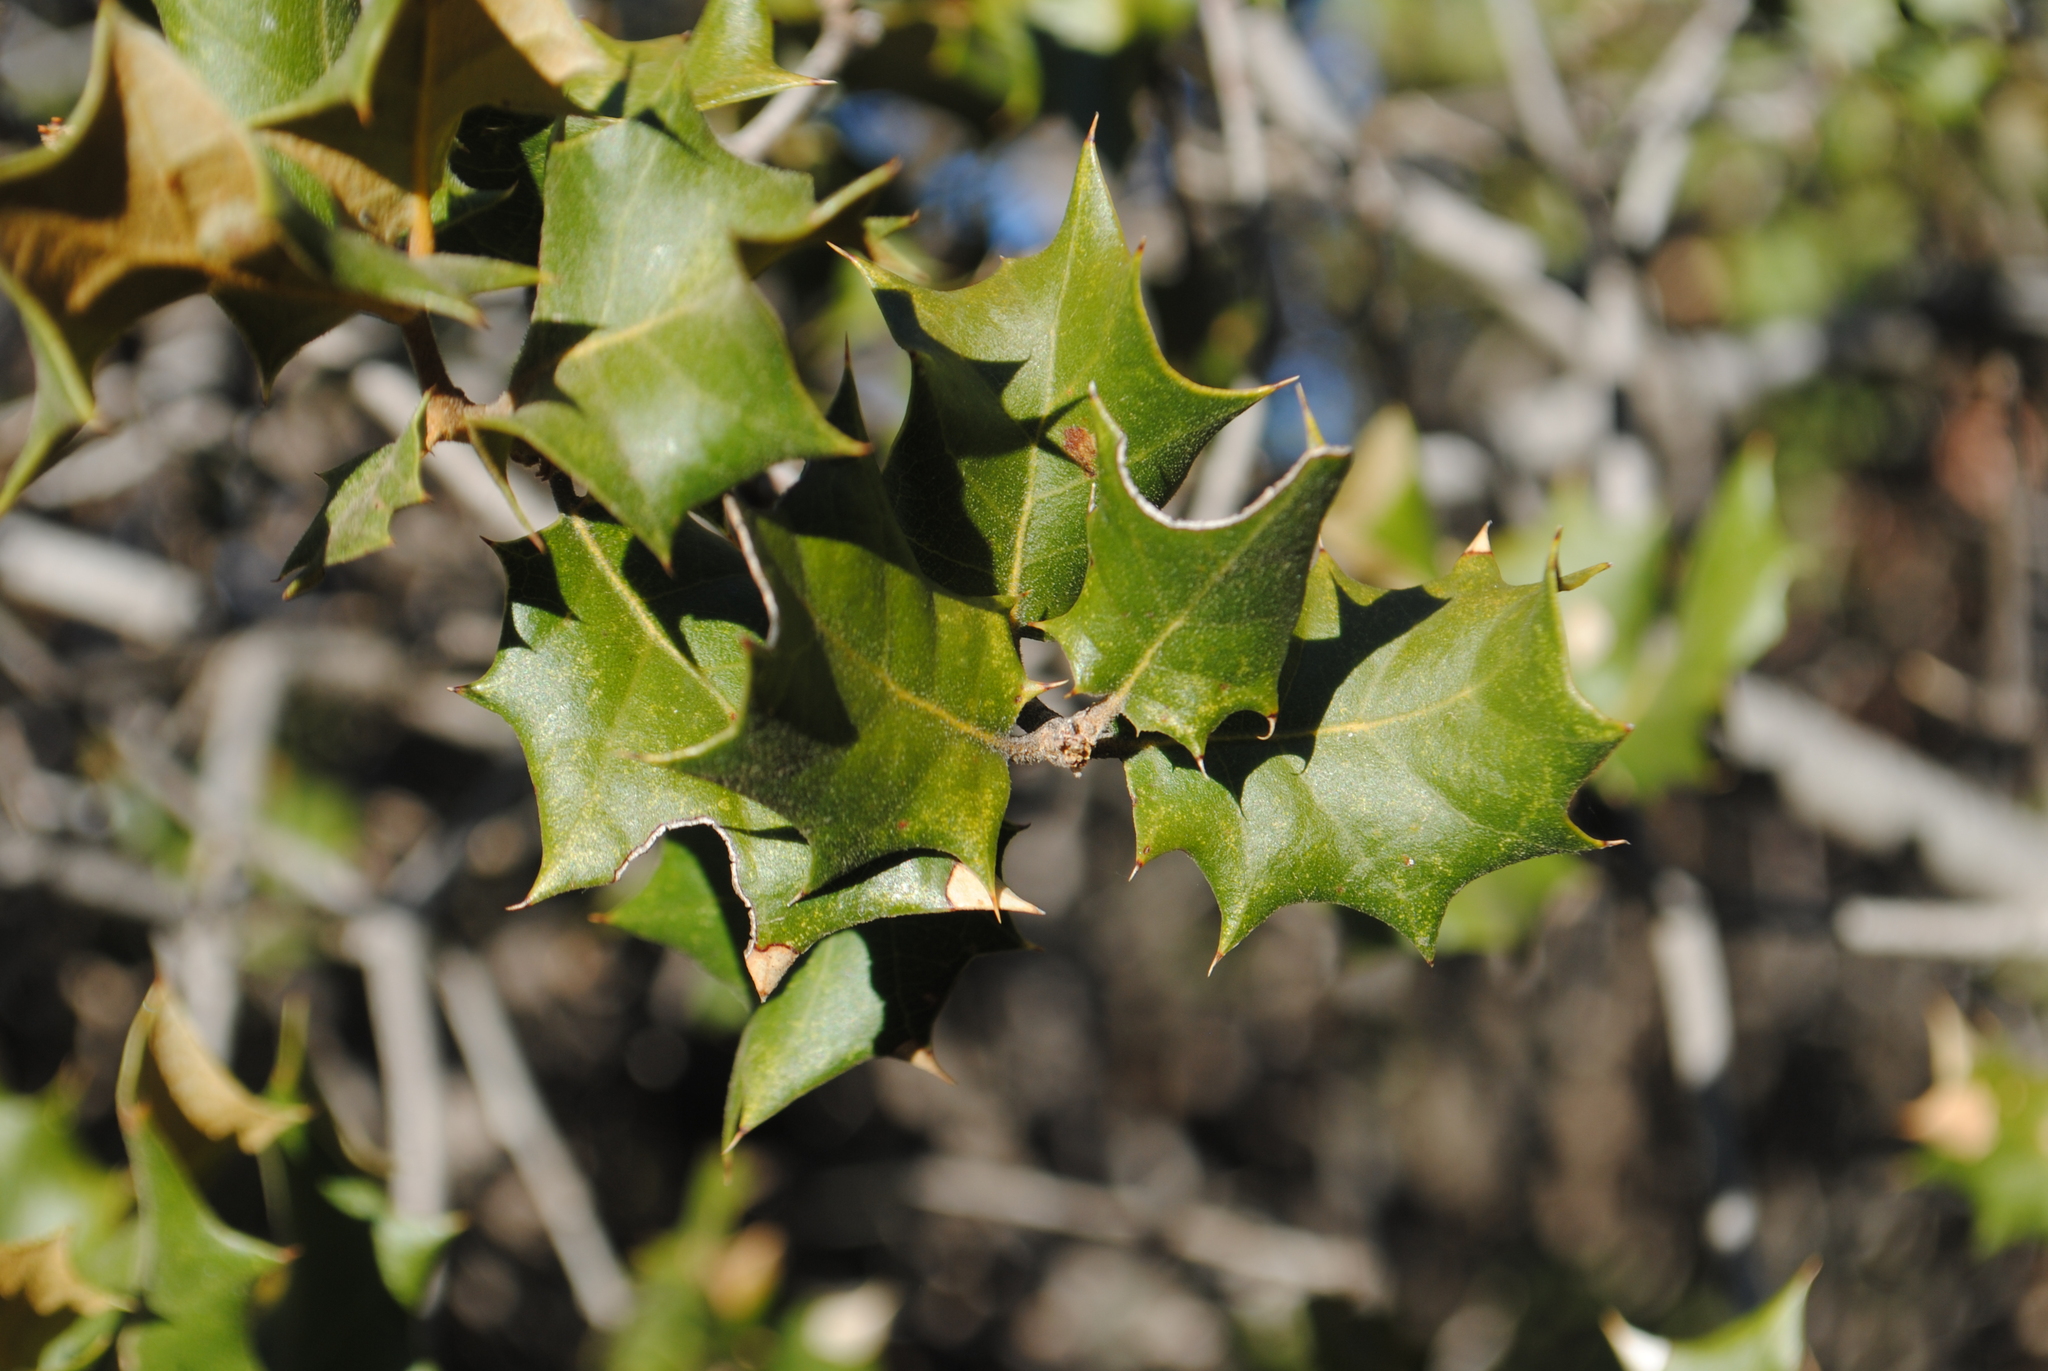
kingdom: Plantae
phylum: Tracheophyta
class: Magnoliopsida
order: Fagales
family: Fagaceae
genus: Quercus
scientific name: Quercus palmeri
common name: Dunn oak
